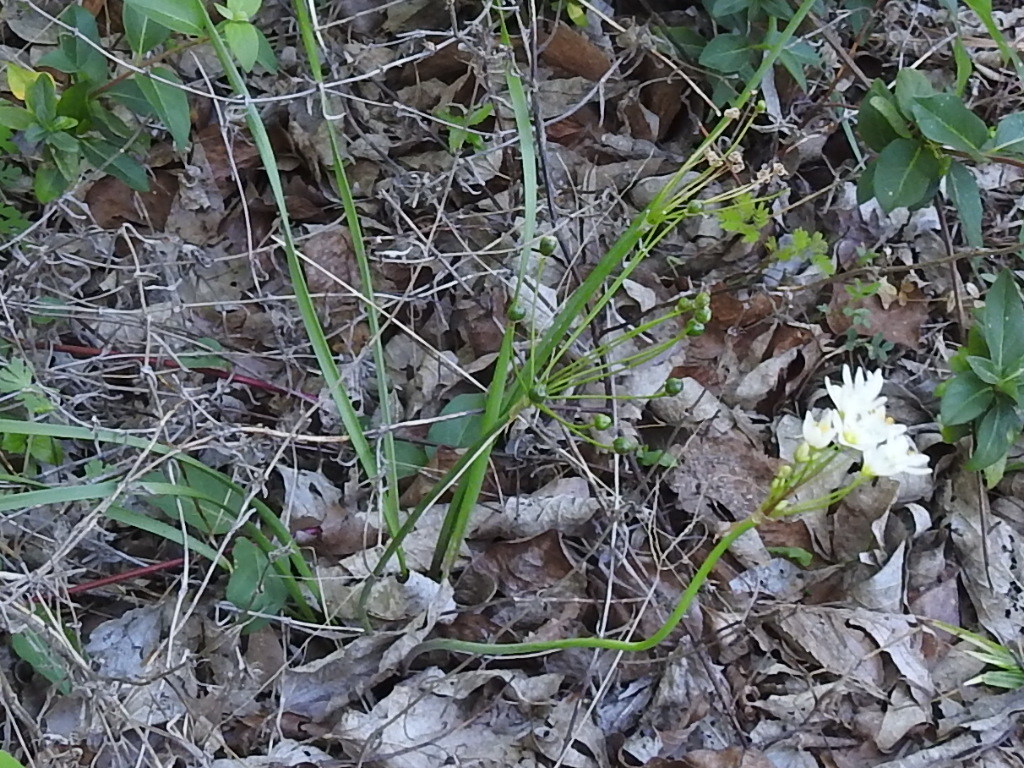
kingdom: Plantae
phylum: Tracheophyta
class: Liliopsida
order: Asparagales
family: Amaryllidaceae
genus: Nothoscordum
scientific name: Nothoscordum bivalve
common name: Crow-poison
